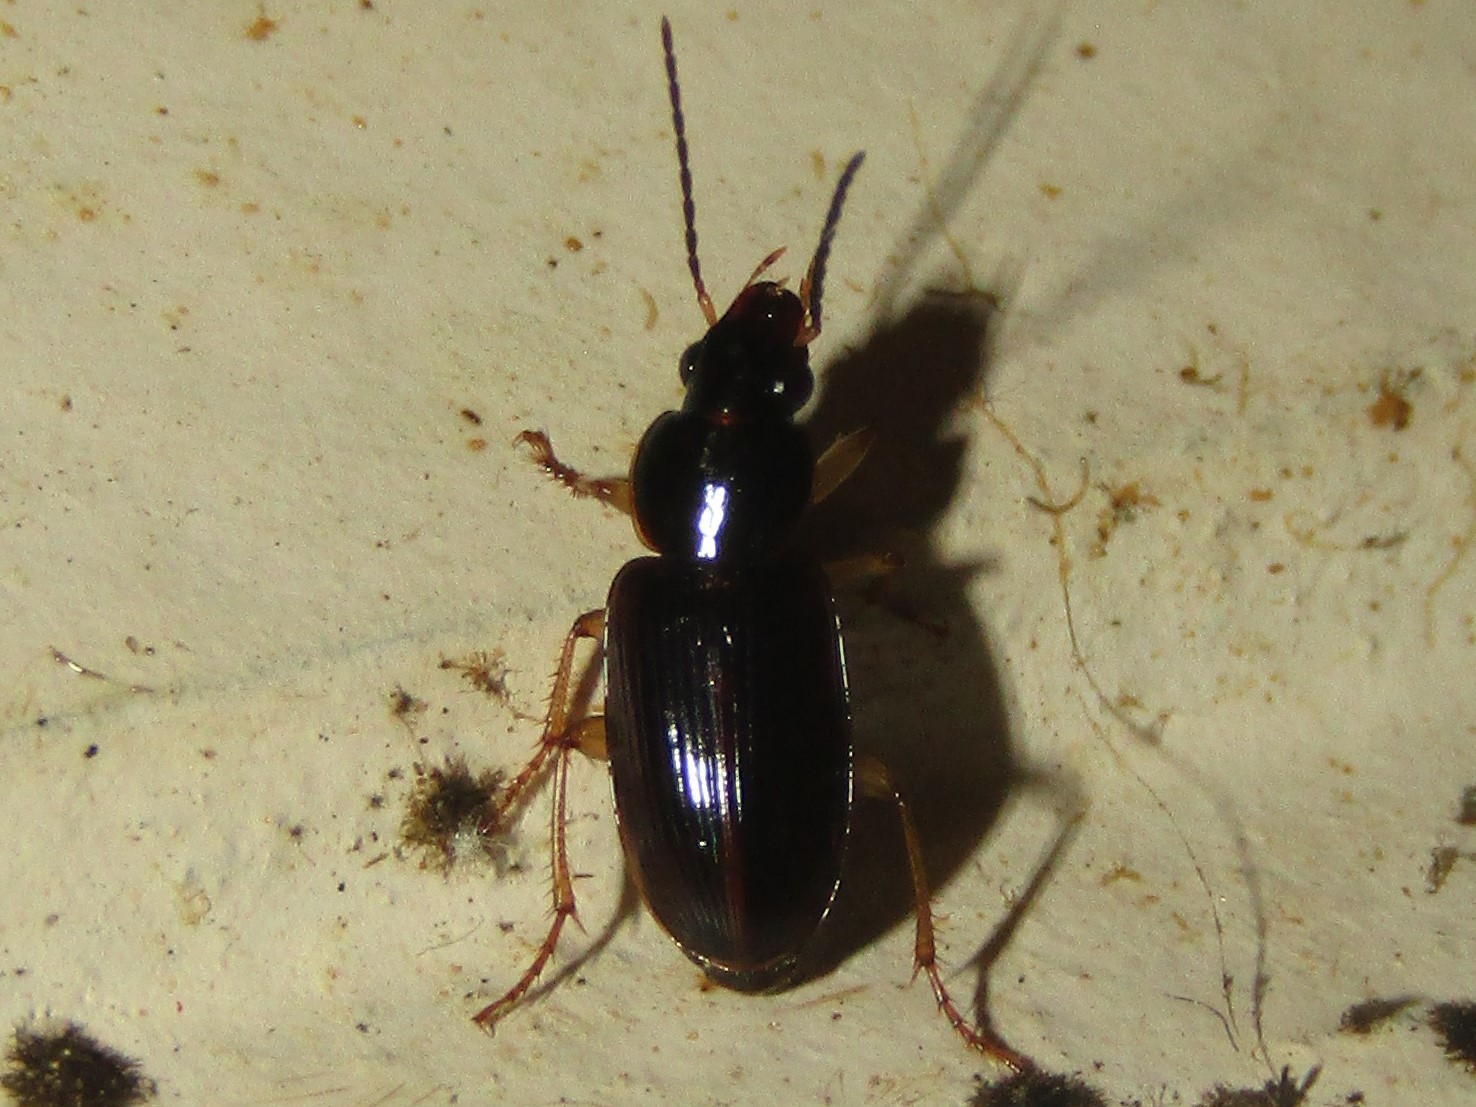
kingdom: Animalia
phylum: Arthropoda
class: Insecta
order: Coleoptera
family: Carabidae
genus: Stenolophus
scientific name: Stenolophus ochropezus
